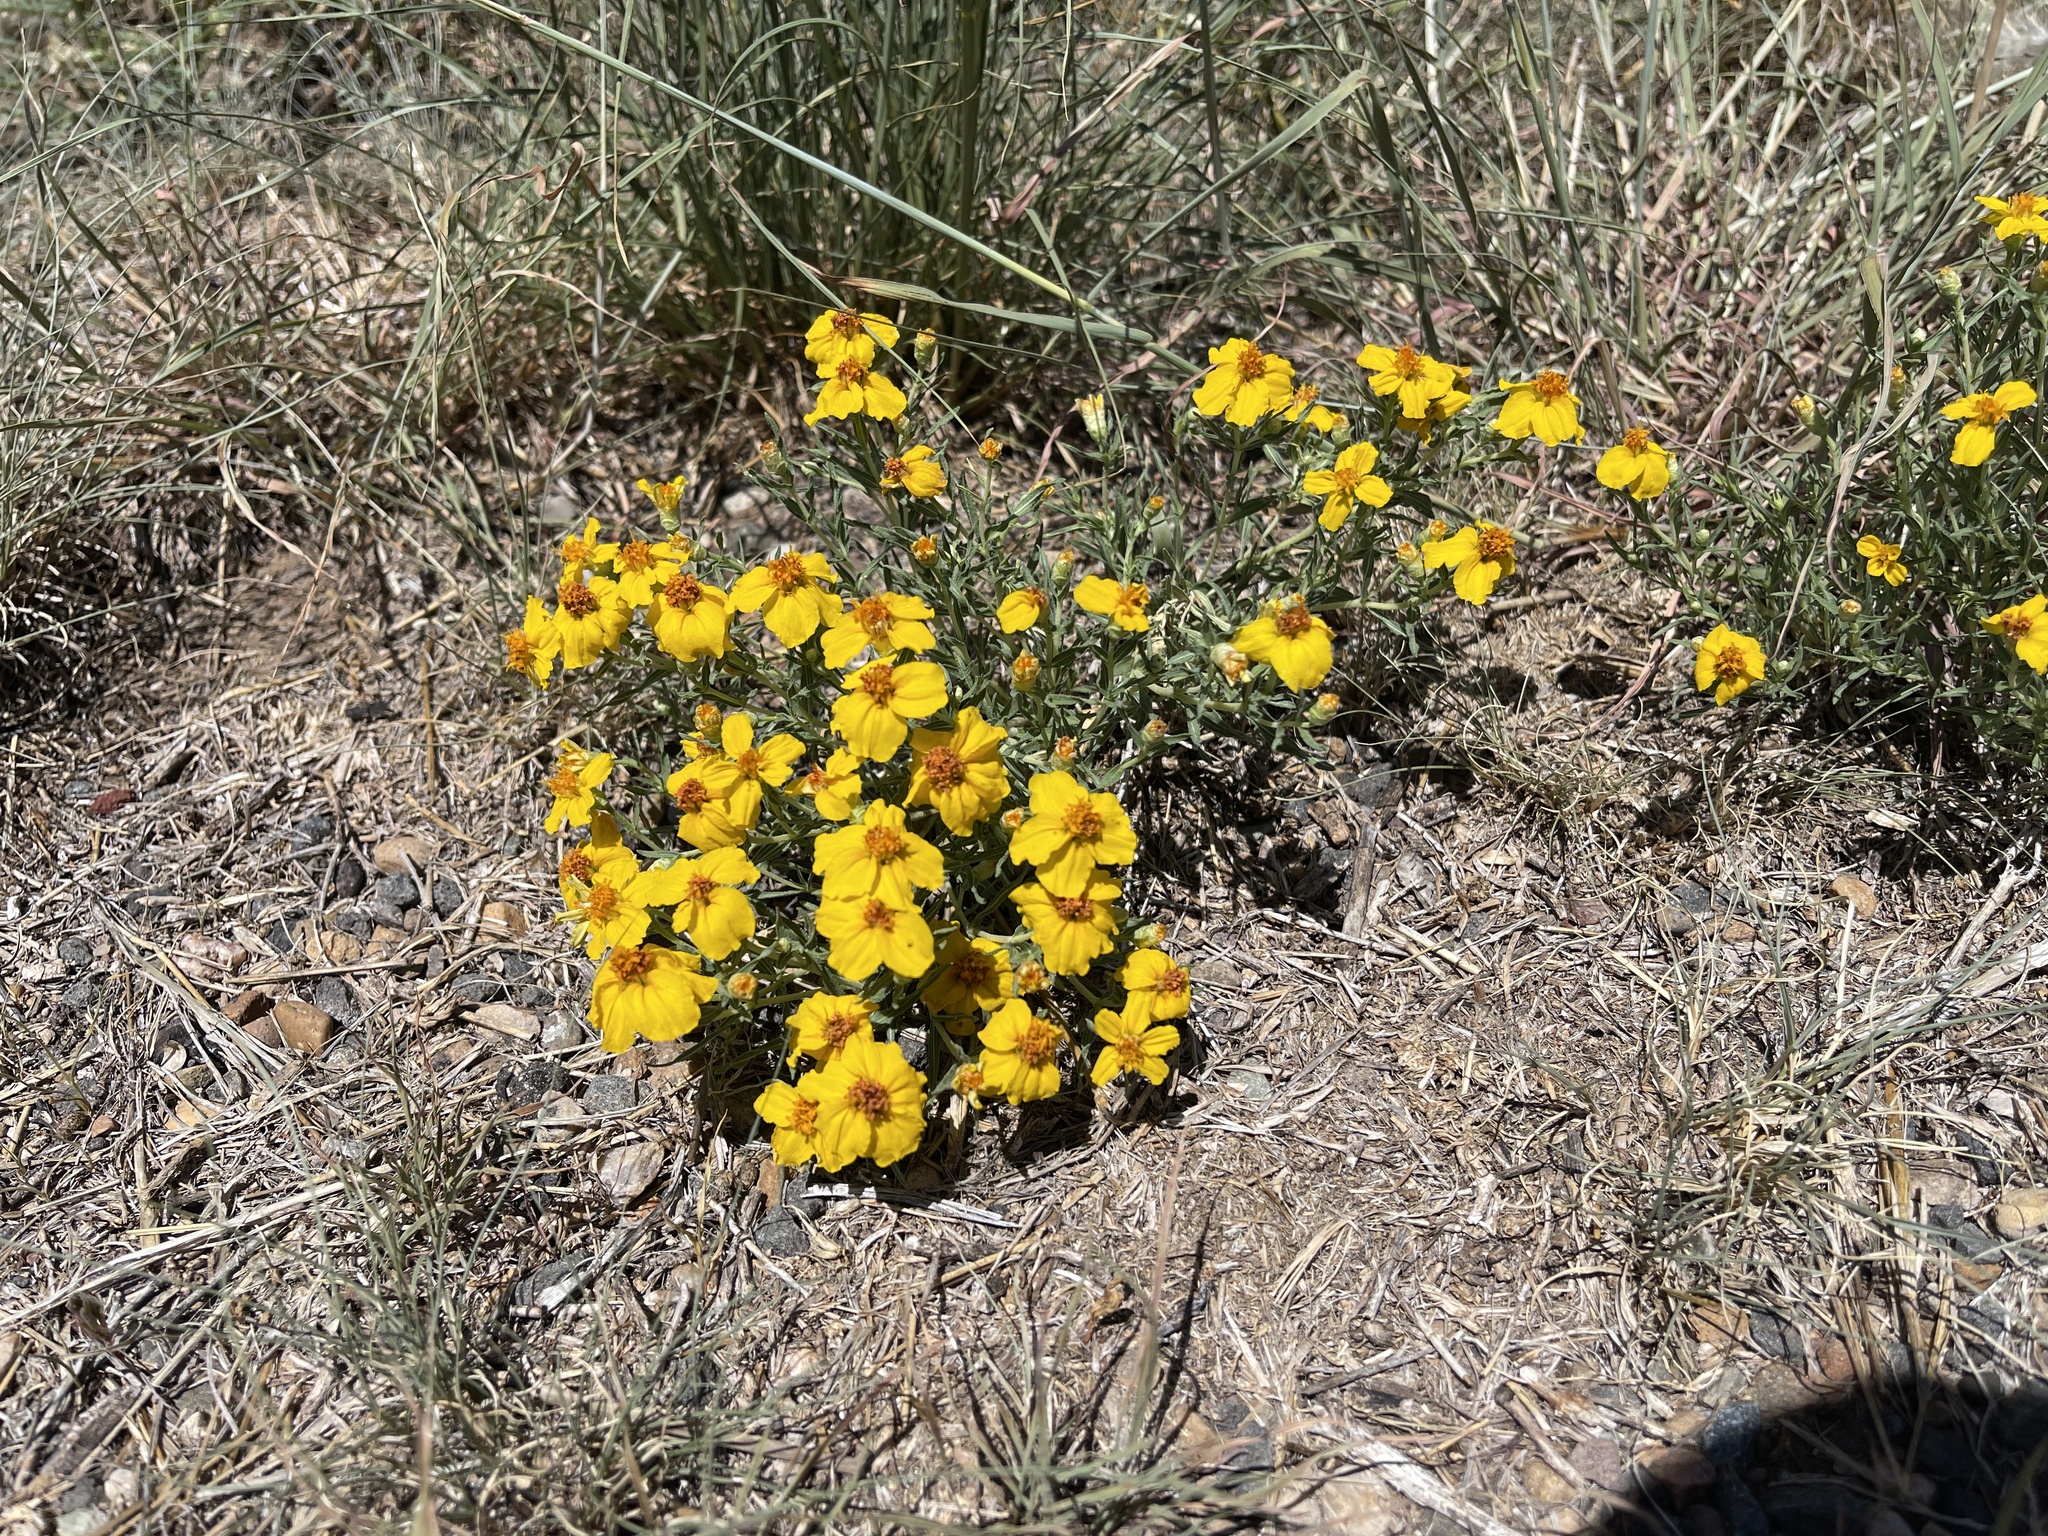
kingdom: Plantae
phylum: Tracheophyta
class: Magnoliopsida
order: Asterales
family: Asteraceae
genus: Zinnia
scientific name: Zinnia grandiflora
